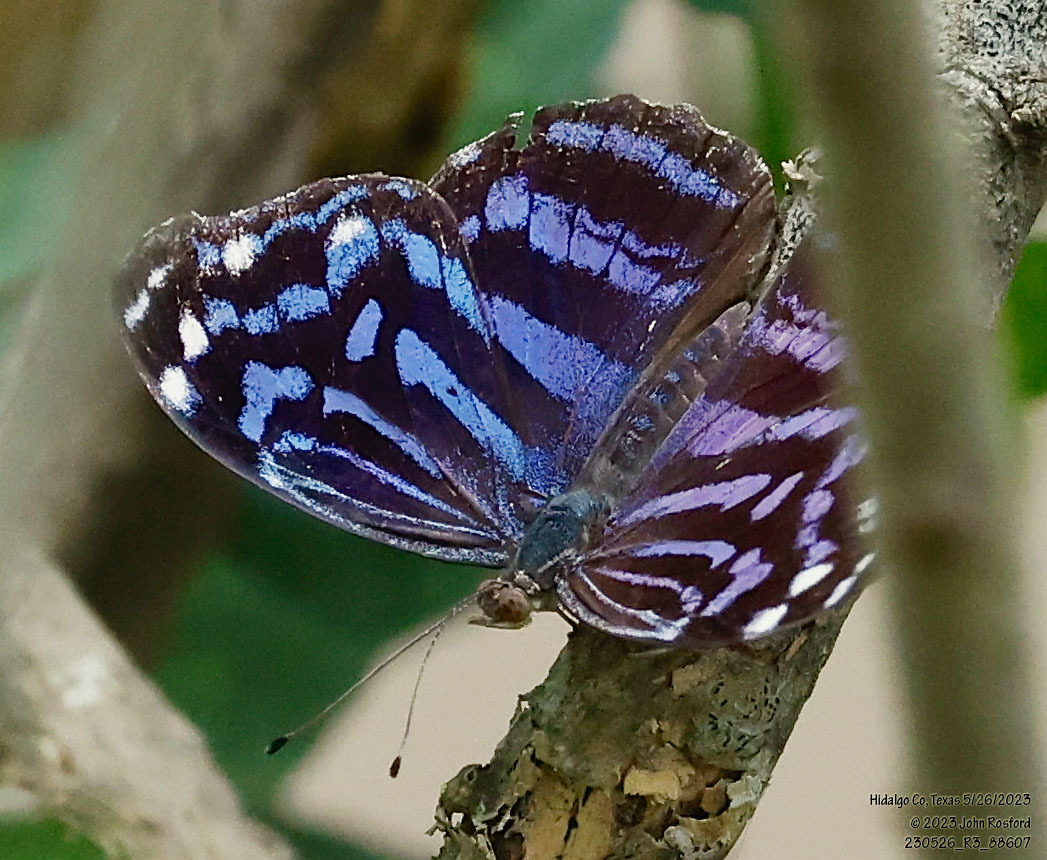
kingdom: Animalia
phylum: Arthropoda
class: Insecta
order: Lepidoptera
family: Nymphalidae
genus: Myscelia
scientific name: Myscelia ethusa
